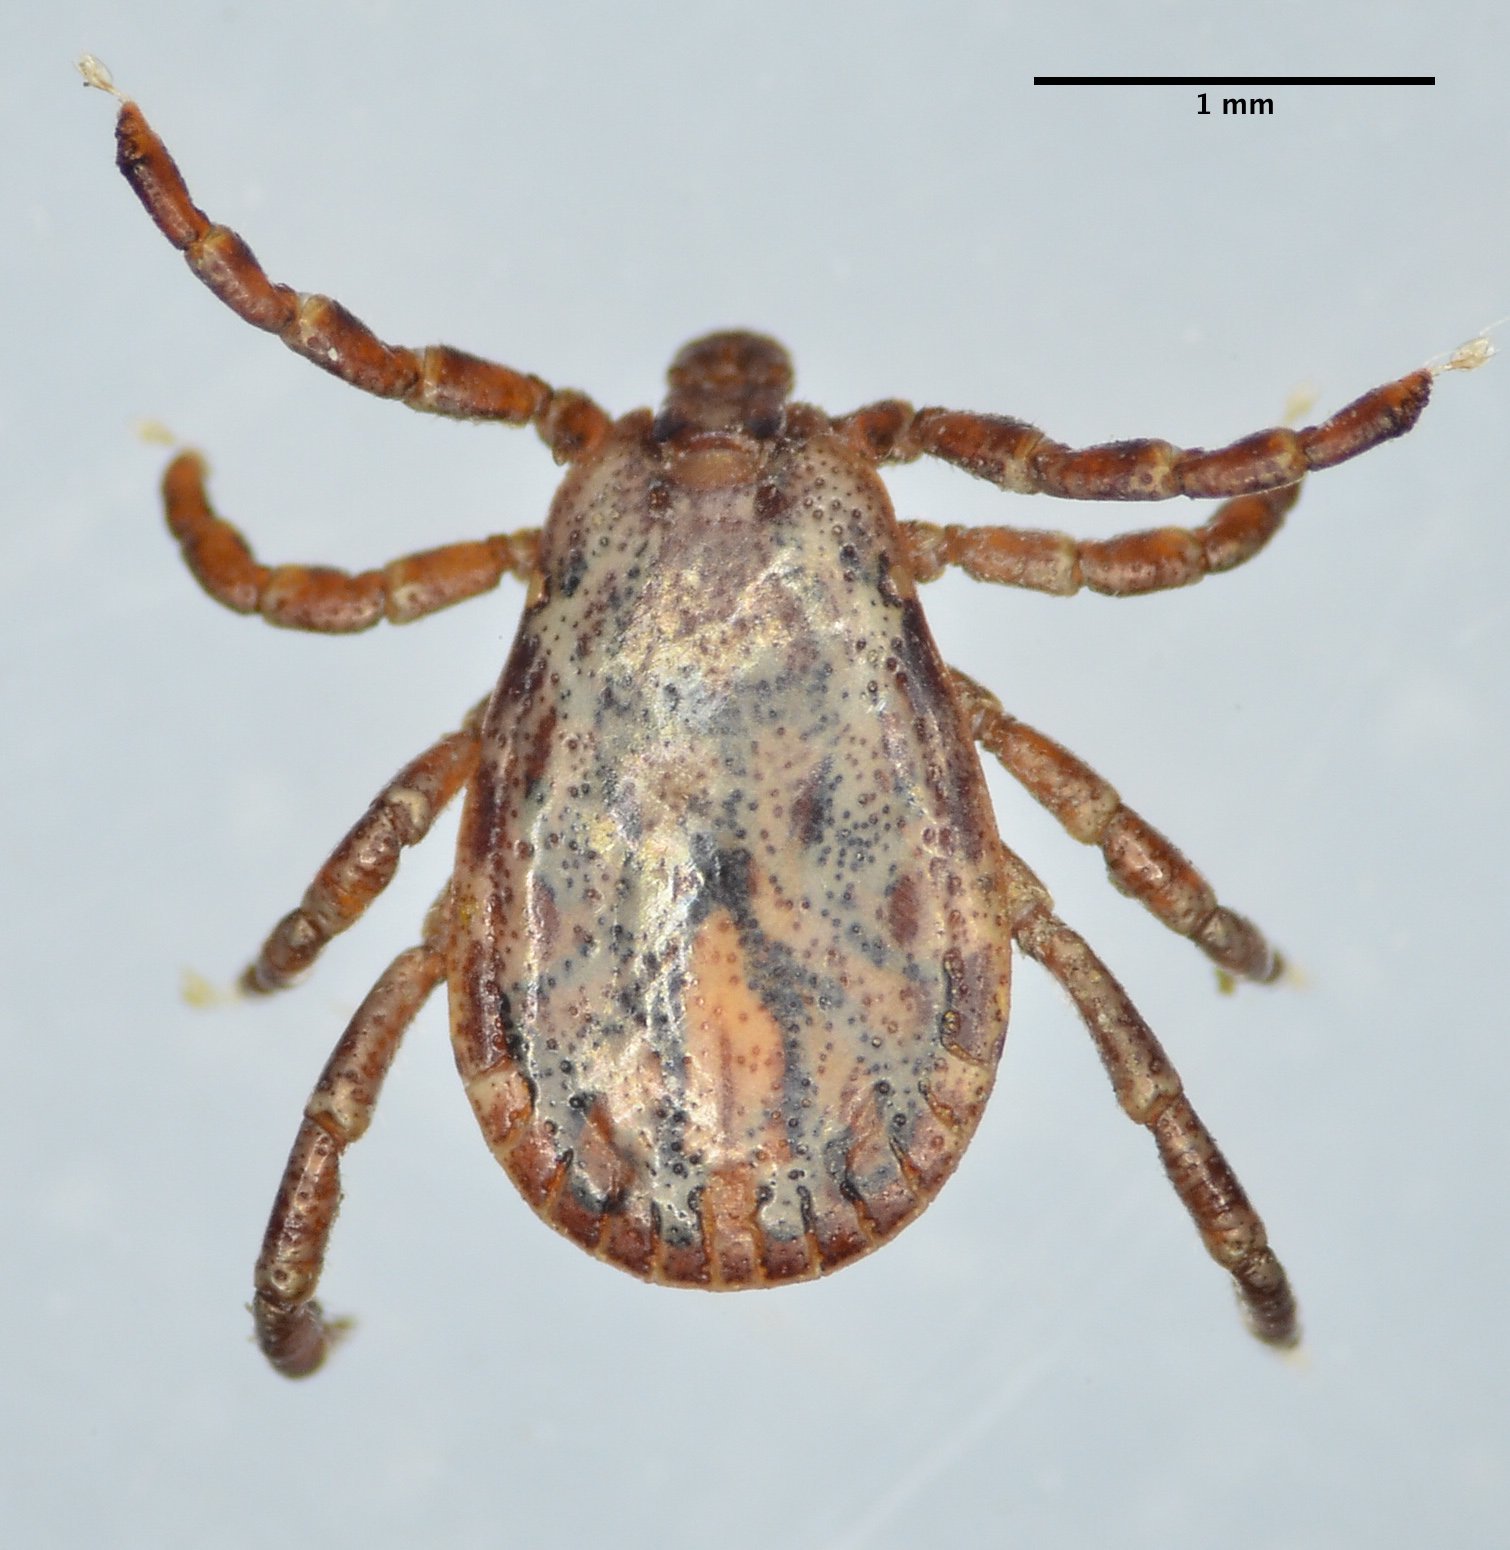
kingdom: Animalia
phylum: Arthropoda
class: Arachnida
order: Ixodida
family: Ixodidae
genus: Dermacentor
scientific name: Dermacentor occidentalis
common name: Net tick
